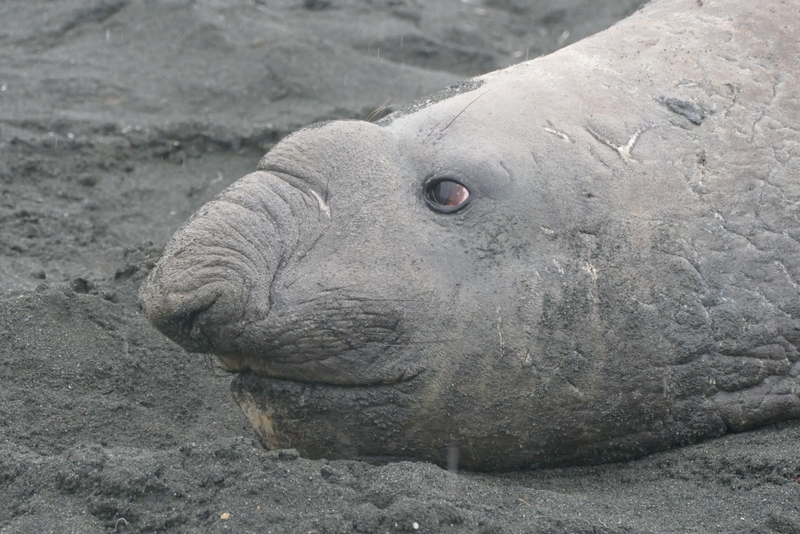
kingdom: Animalia
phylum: Chordata
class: Mammalia
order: Carnivora
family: Phocidae
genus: Mirounga
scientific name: Mirounga leonina
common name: Southern elephant seal
